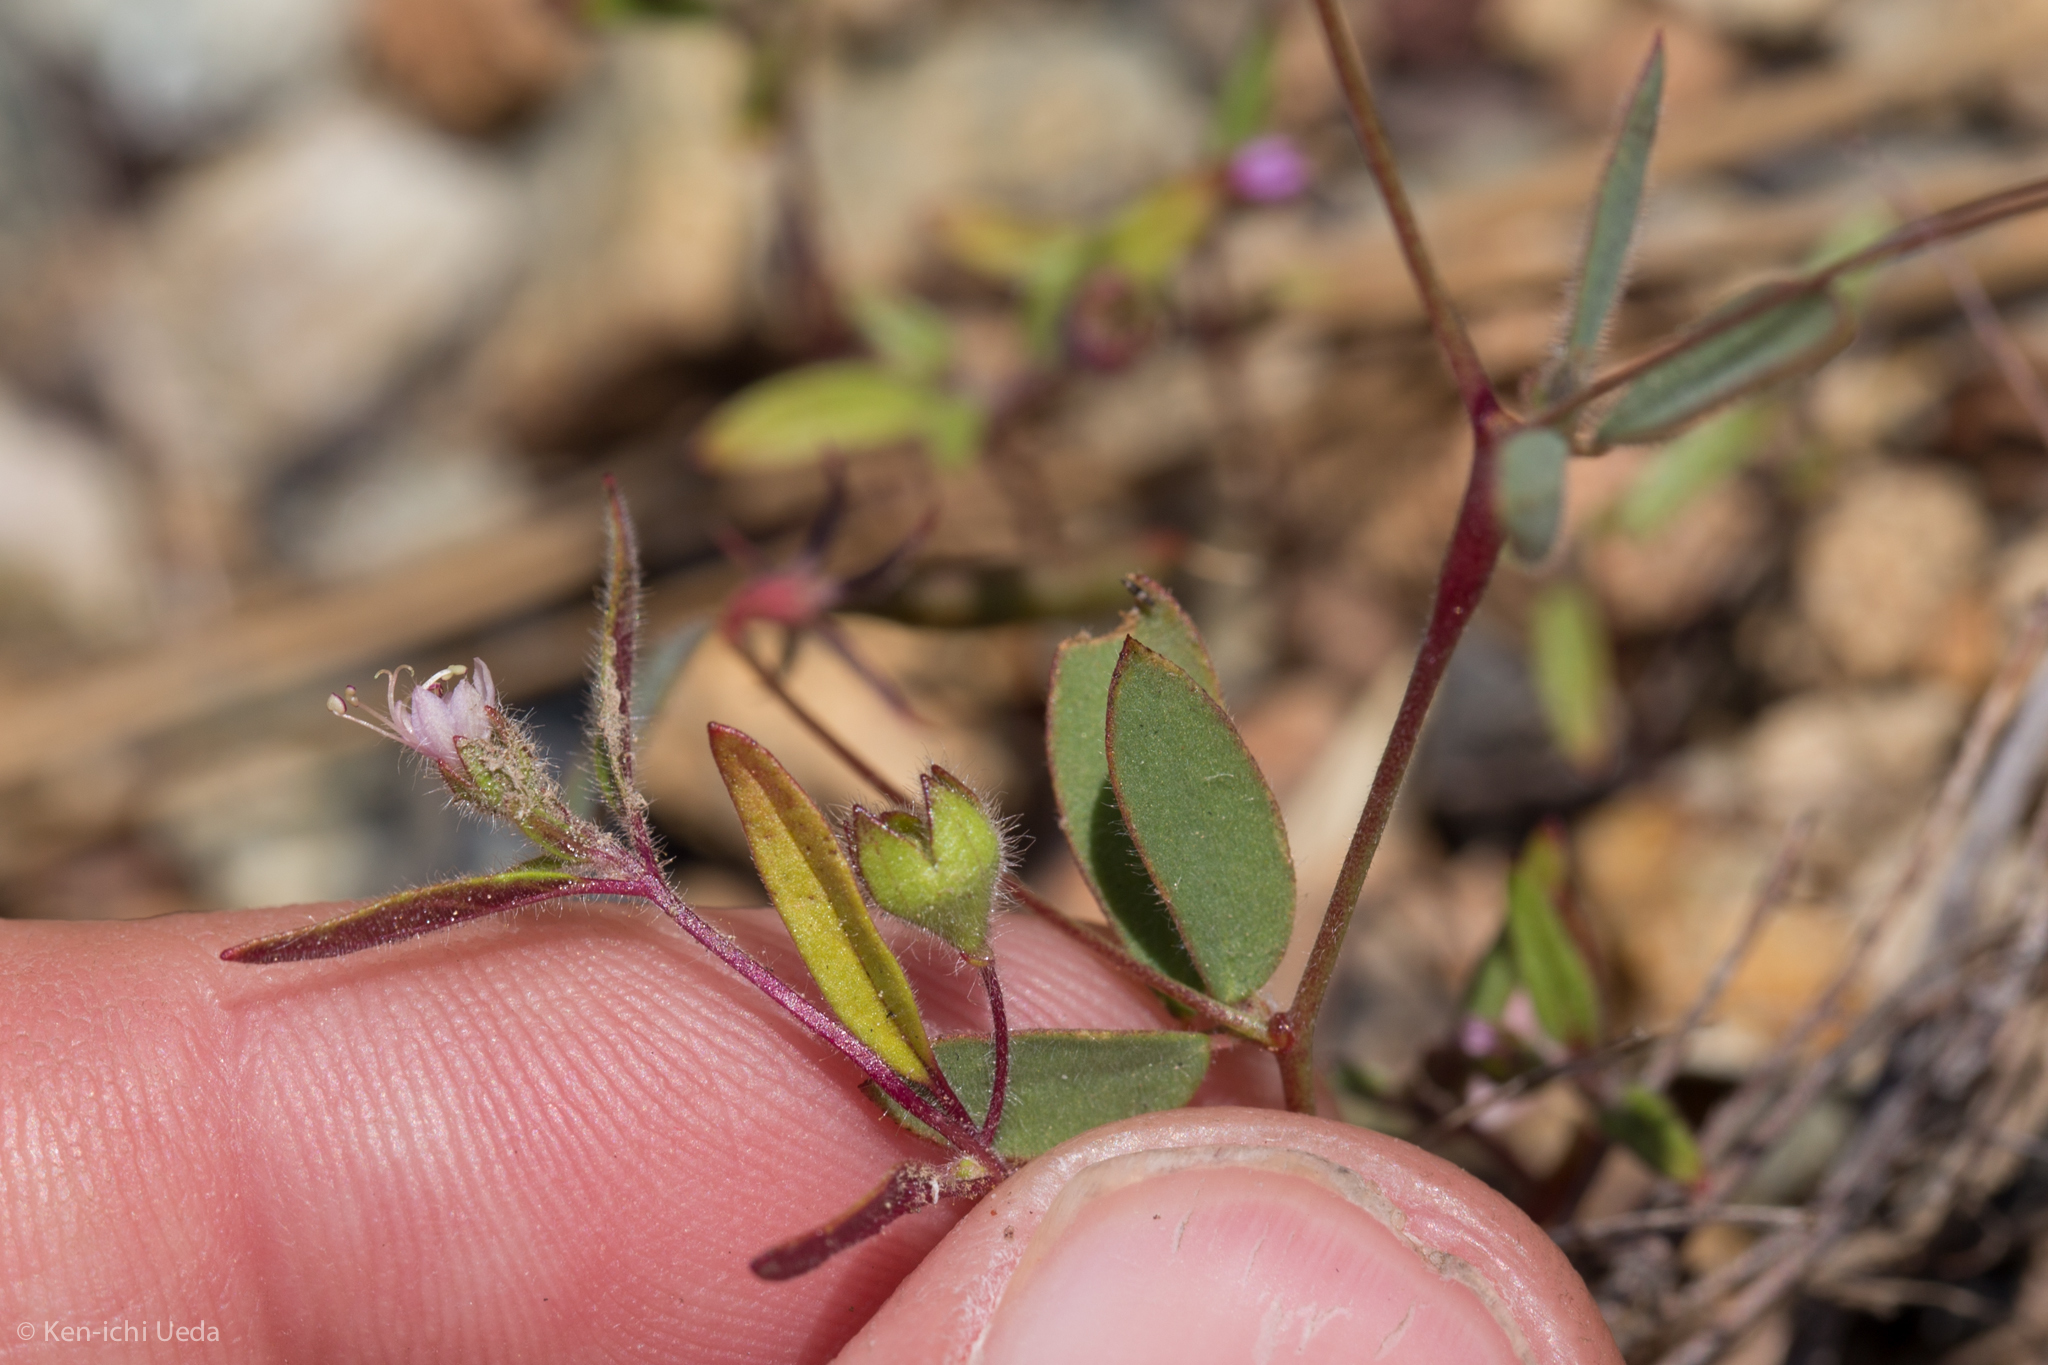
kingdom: Plantae
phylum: Tracheophyta
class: Magnoliopsida
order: Lamiales
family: Lamiaceae
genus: Trichostema
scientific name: Trichostema simulatum
